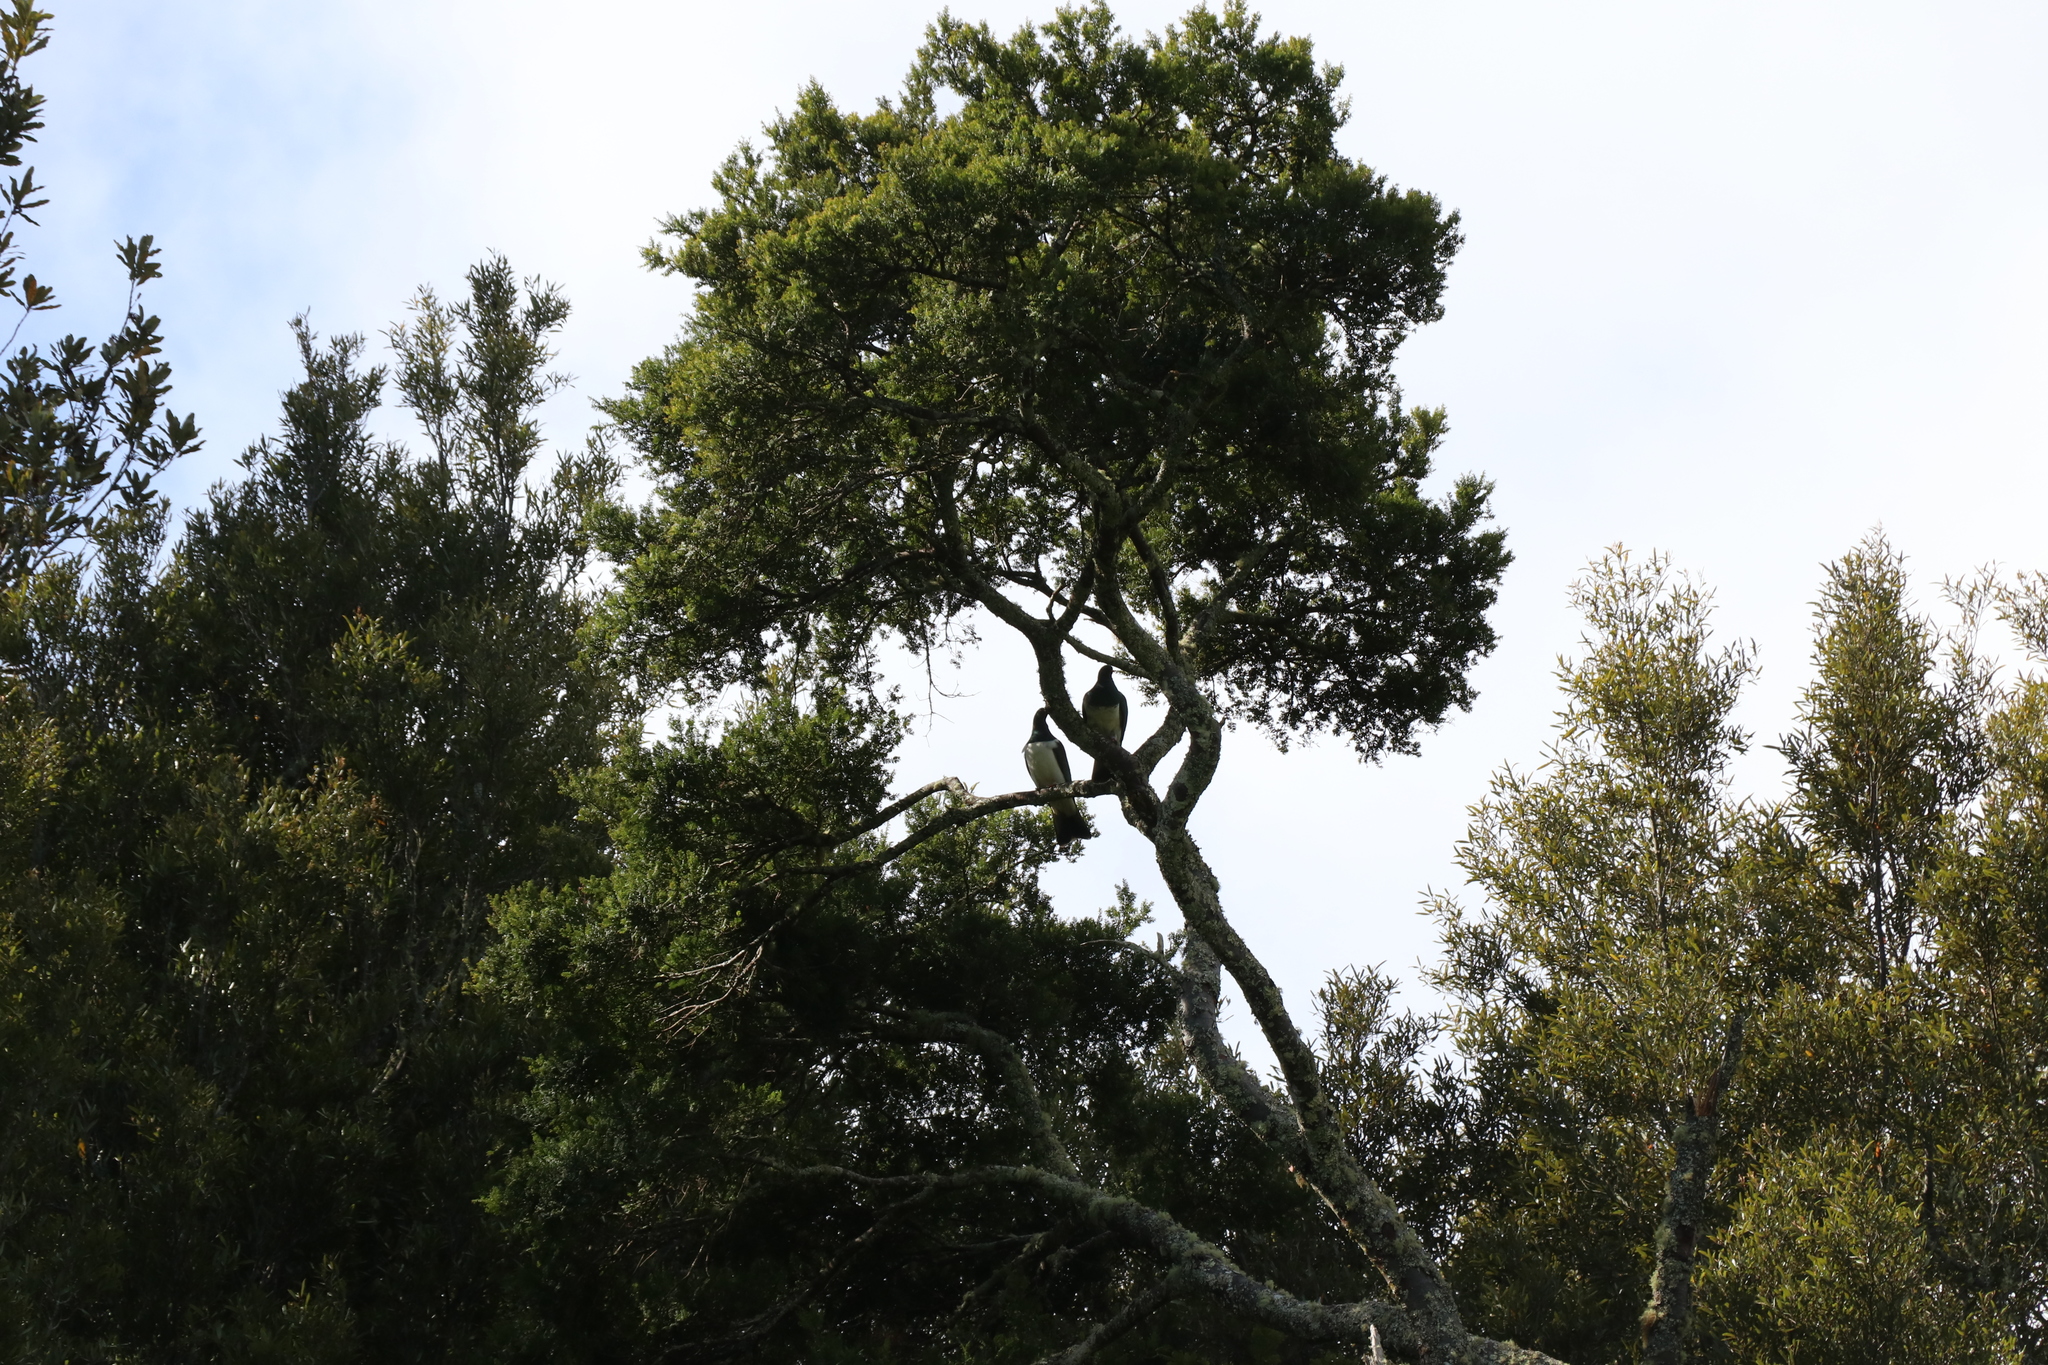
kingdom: Animalia
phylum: Chordata
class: Aves
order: Columbiformes
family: Columbidae
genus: Hemiphaga
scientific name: Hemiphaga novaeseelandiae
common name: New zealand pigeon
